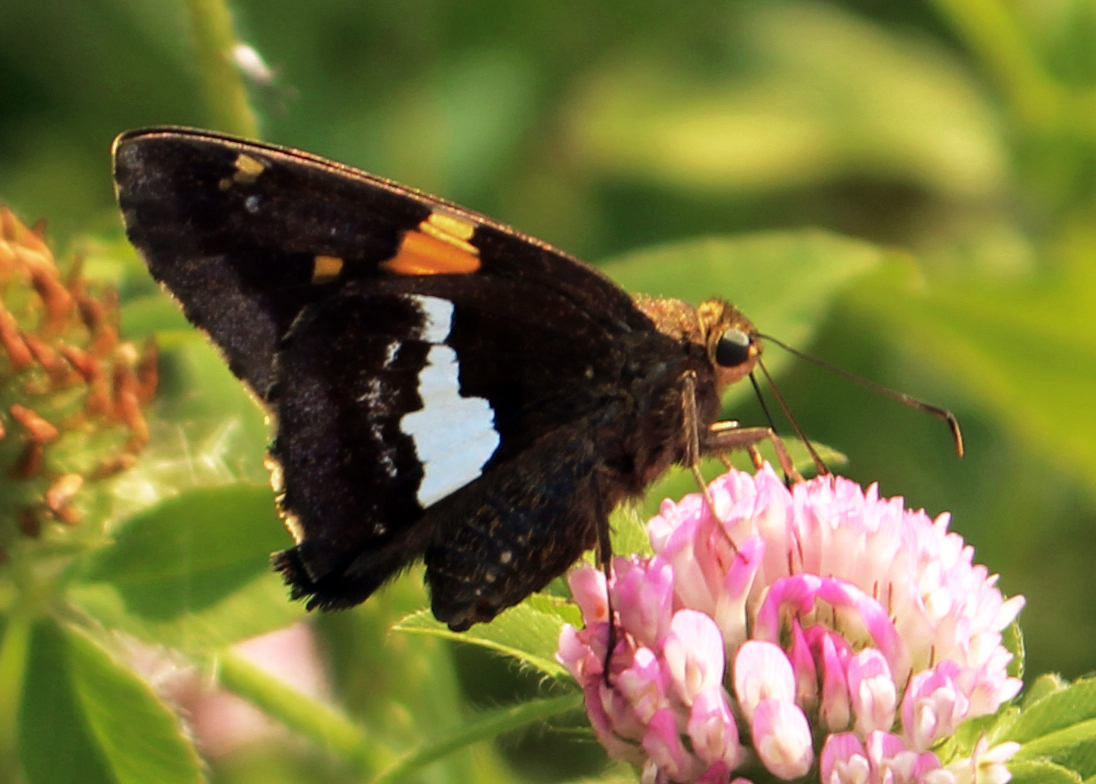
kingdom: Animalia
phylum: Arthropoda
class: Insecta
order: Lepidoptera
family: Hesperiidae
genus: Epargyreus
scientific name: Epargyreus clarus
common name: Silver-spotted skipper
